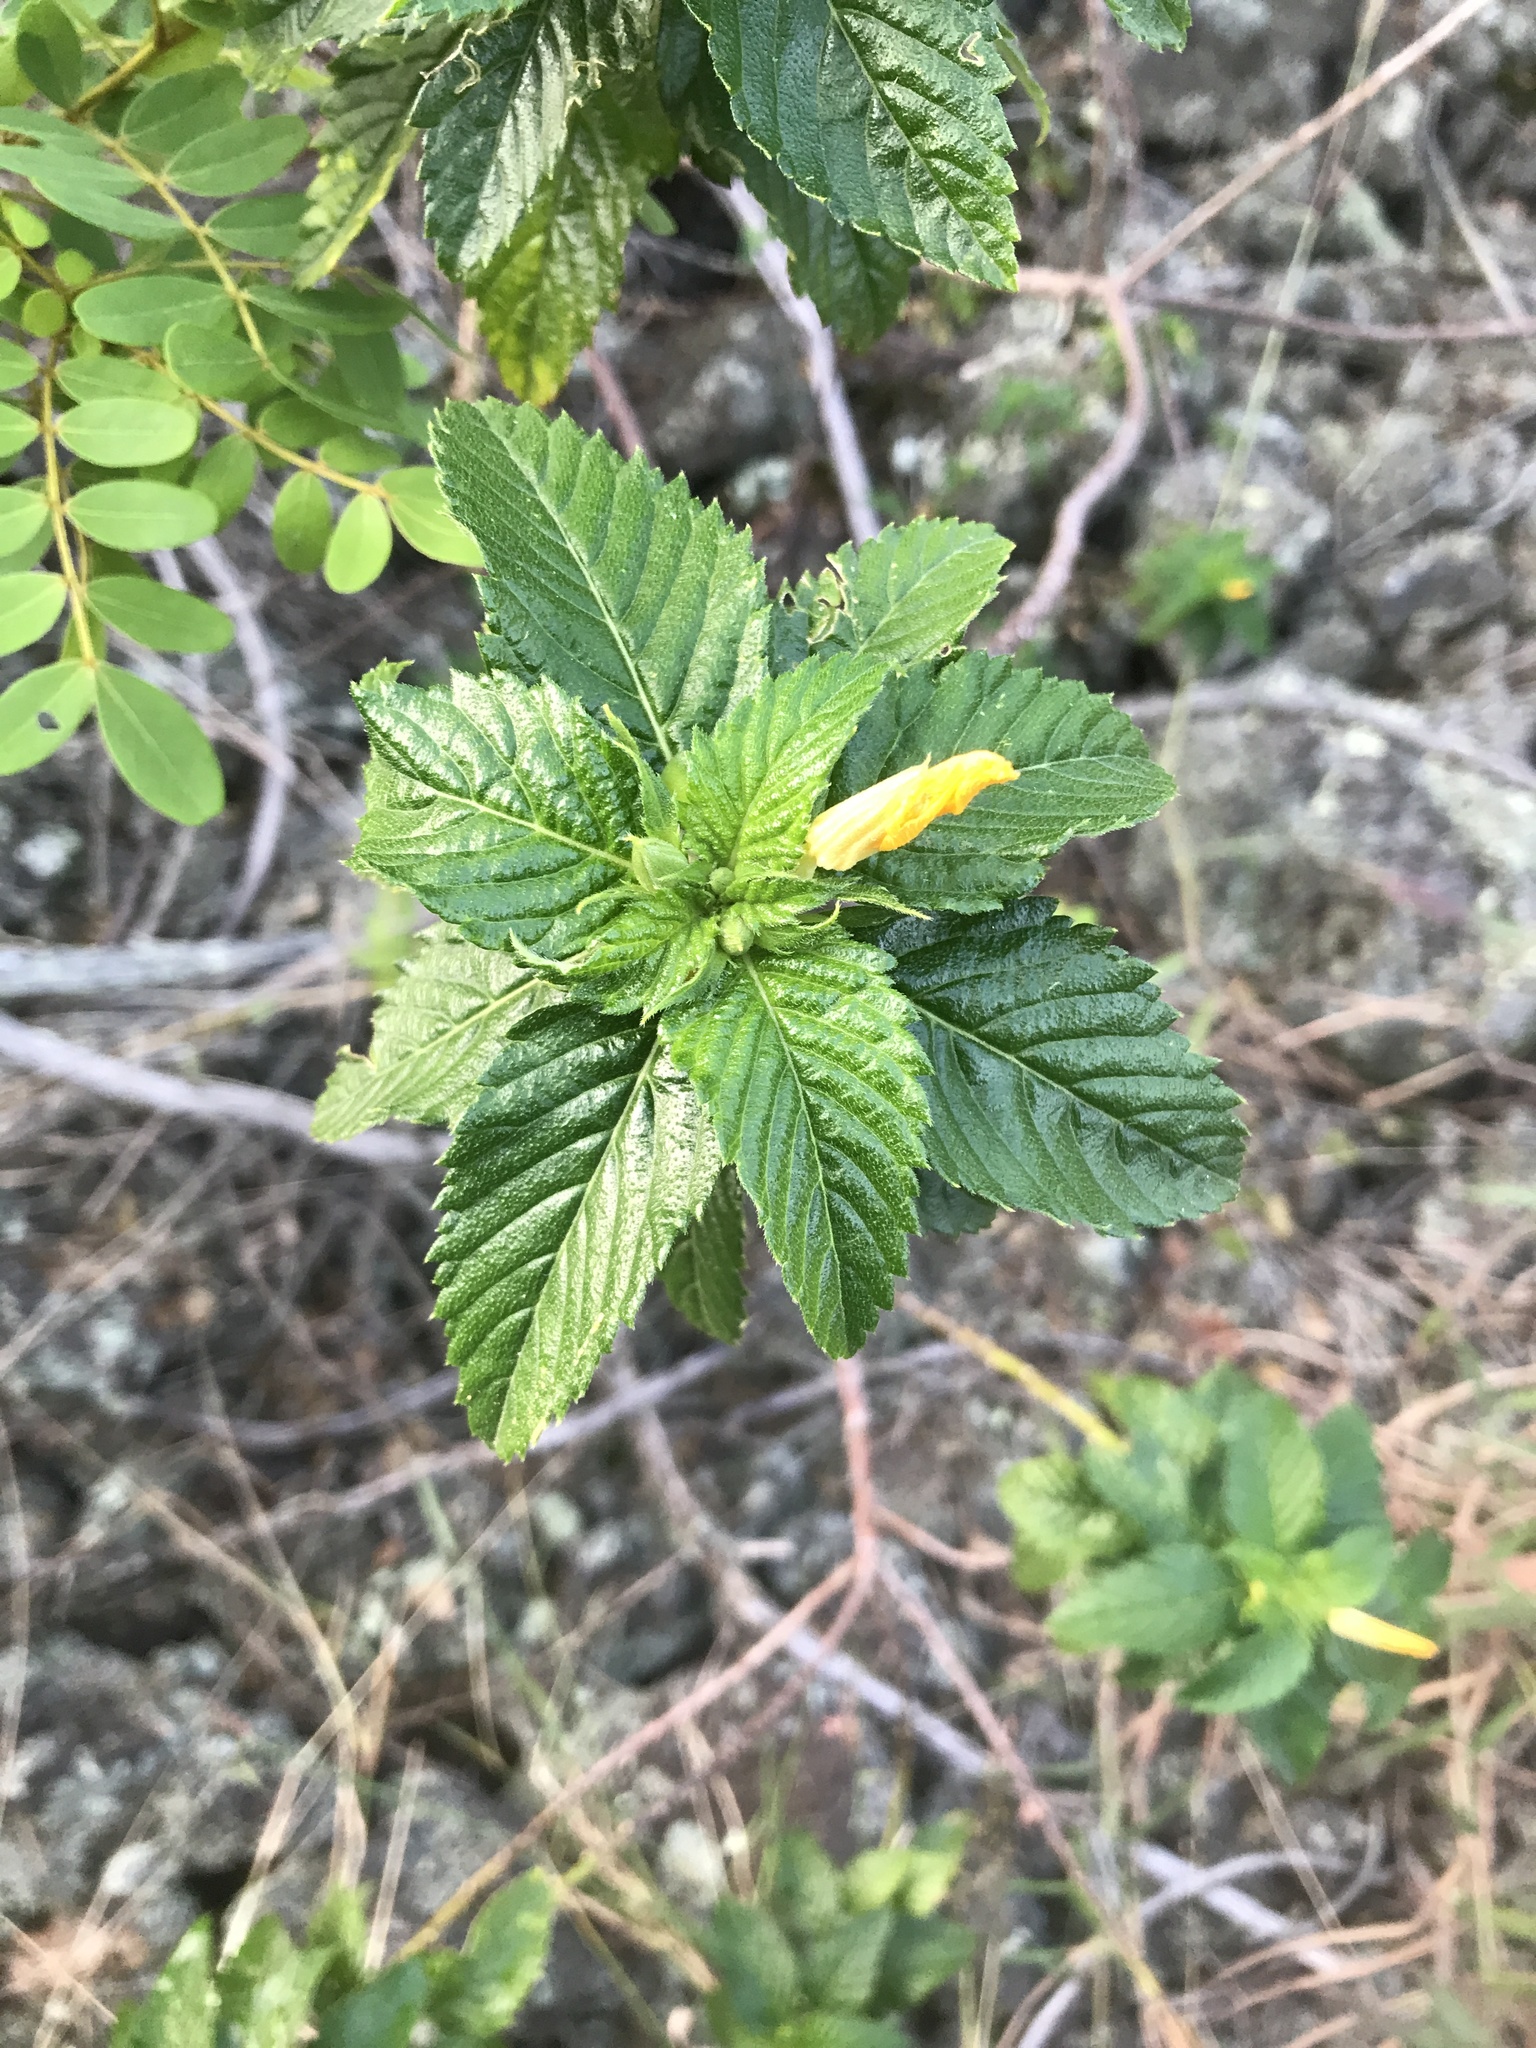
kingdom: Plantae
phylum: Tracheophyta
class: Magnoliopsida
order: Malpighiales
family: Turneraceae
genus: Turnera
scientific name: Turnera ulmifolia
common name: Ramgoat dashalong
